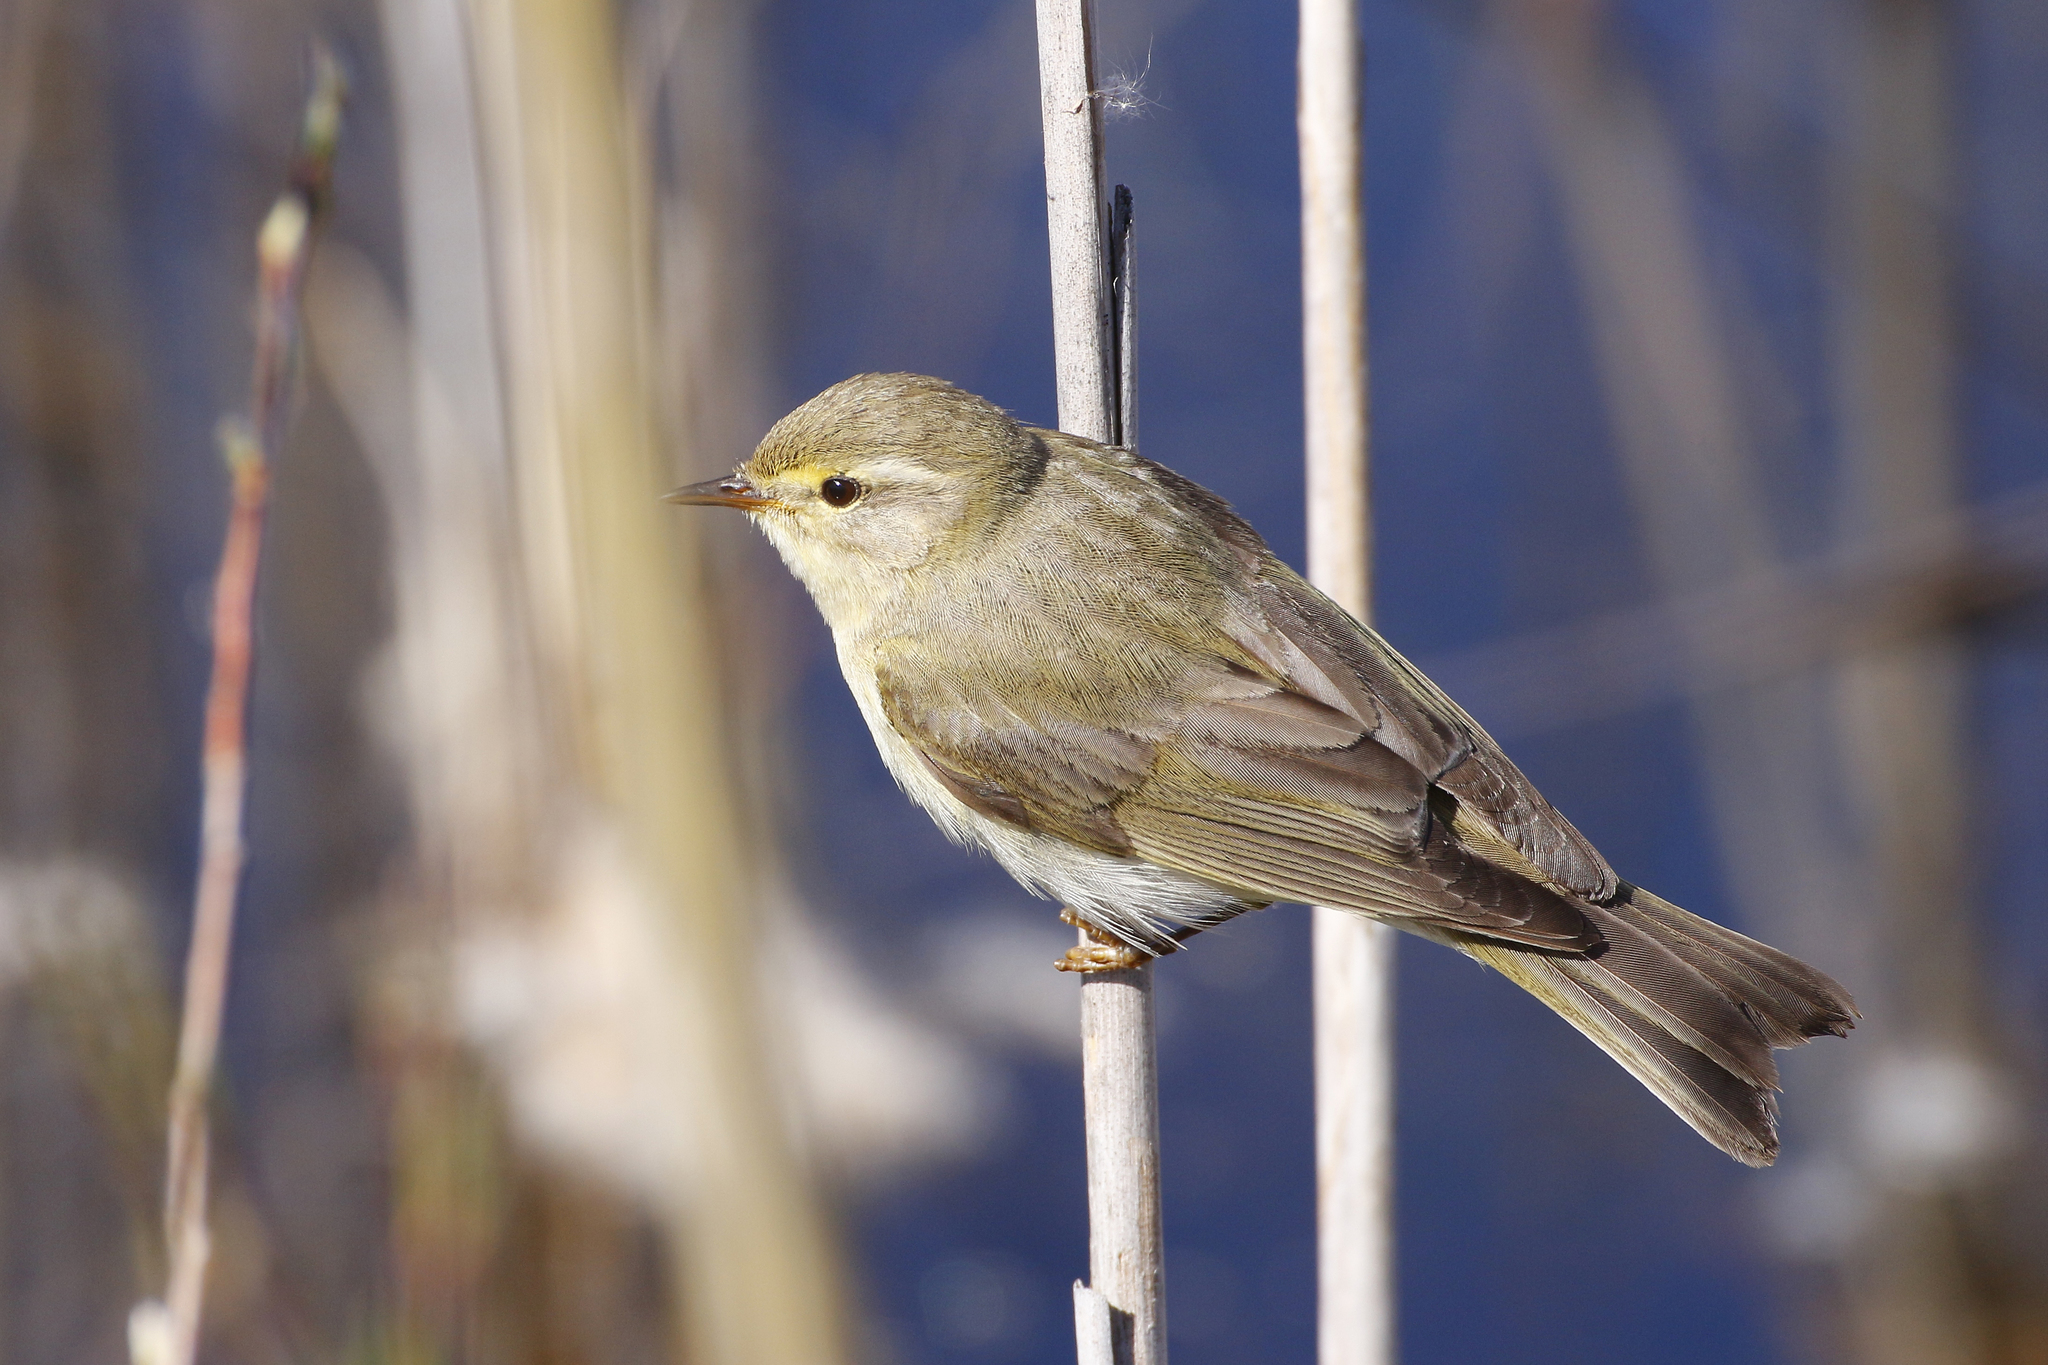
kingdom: Animalia
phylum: Chordata
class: Aves
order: Passeriformes
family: Phylloscopidae
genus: Phylloscopus
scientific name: Phylloscopus trochilus
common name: Willow warbler
